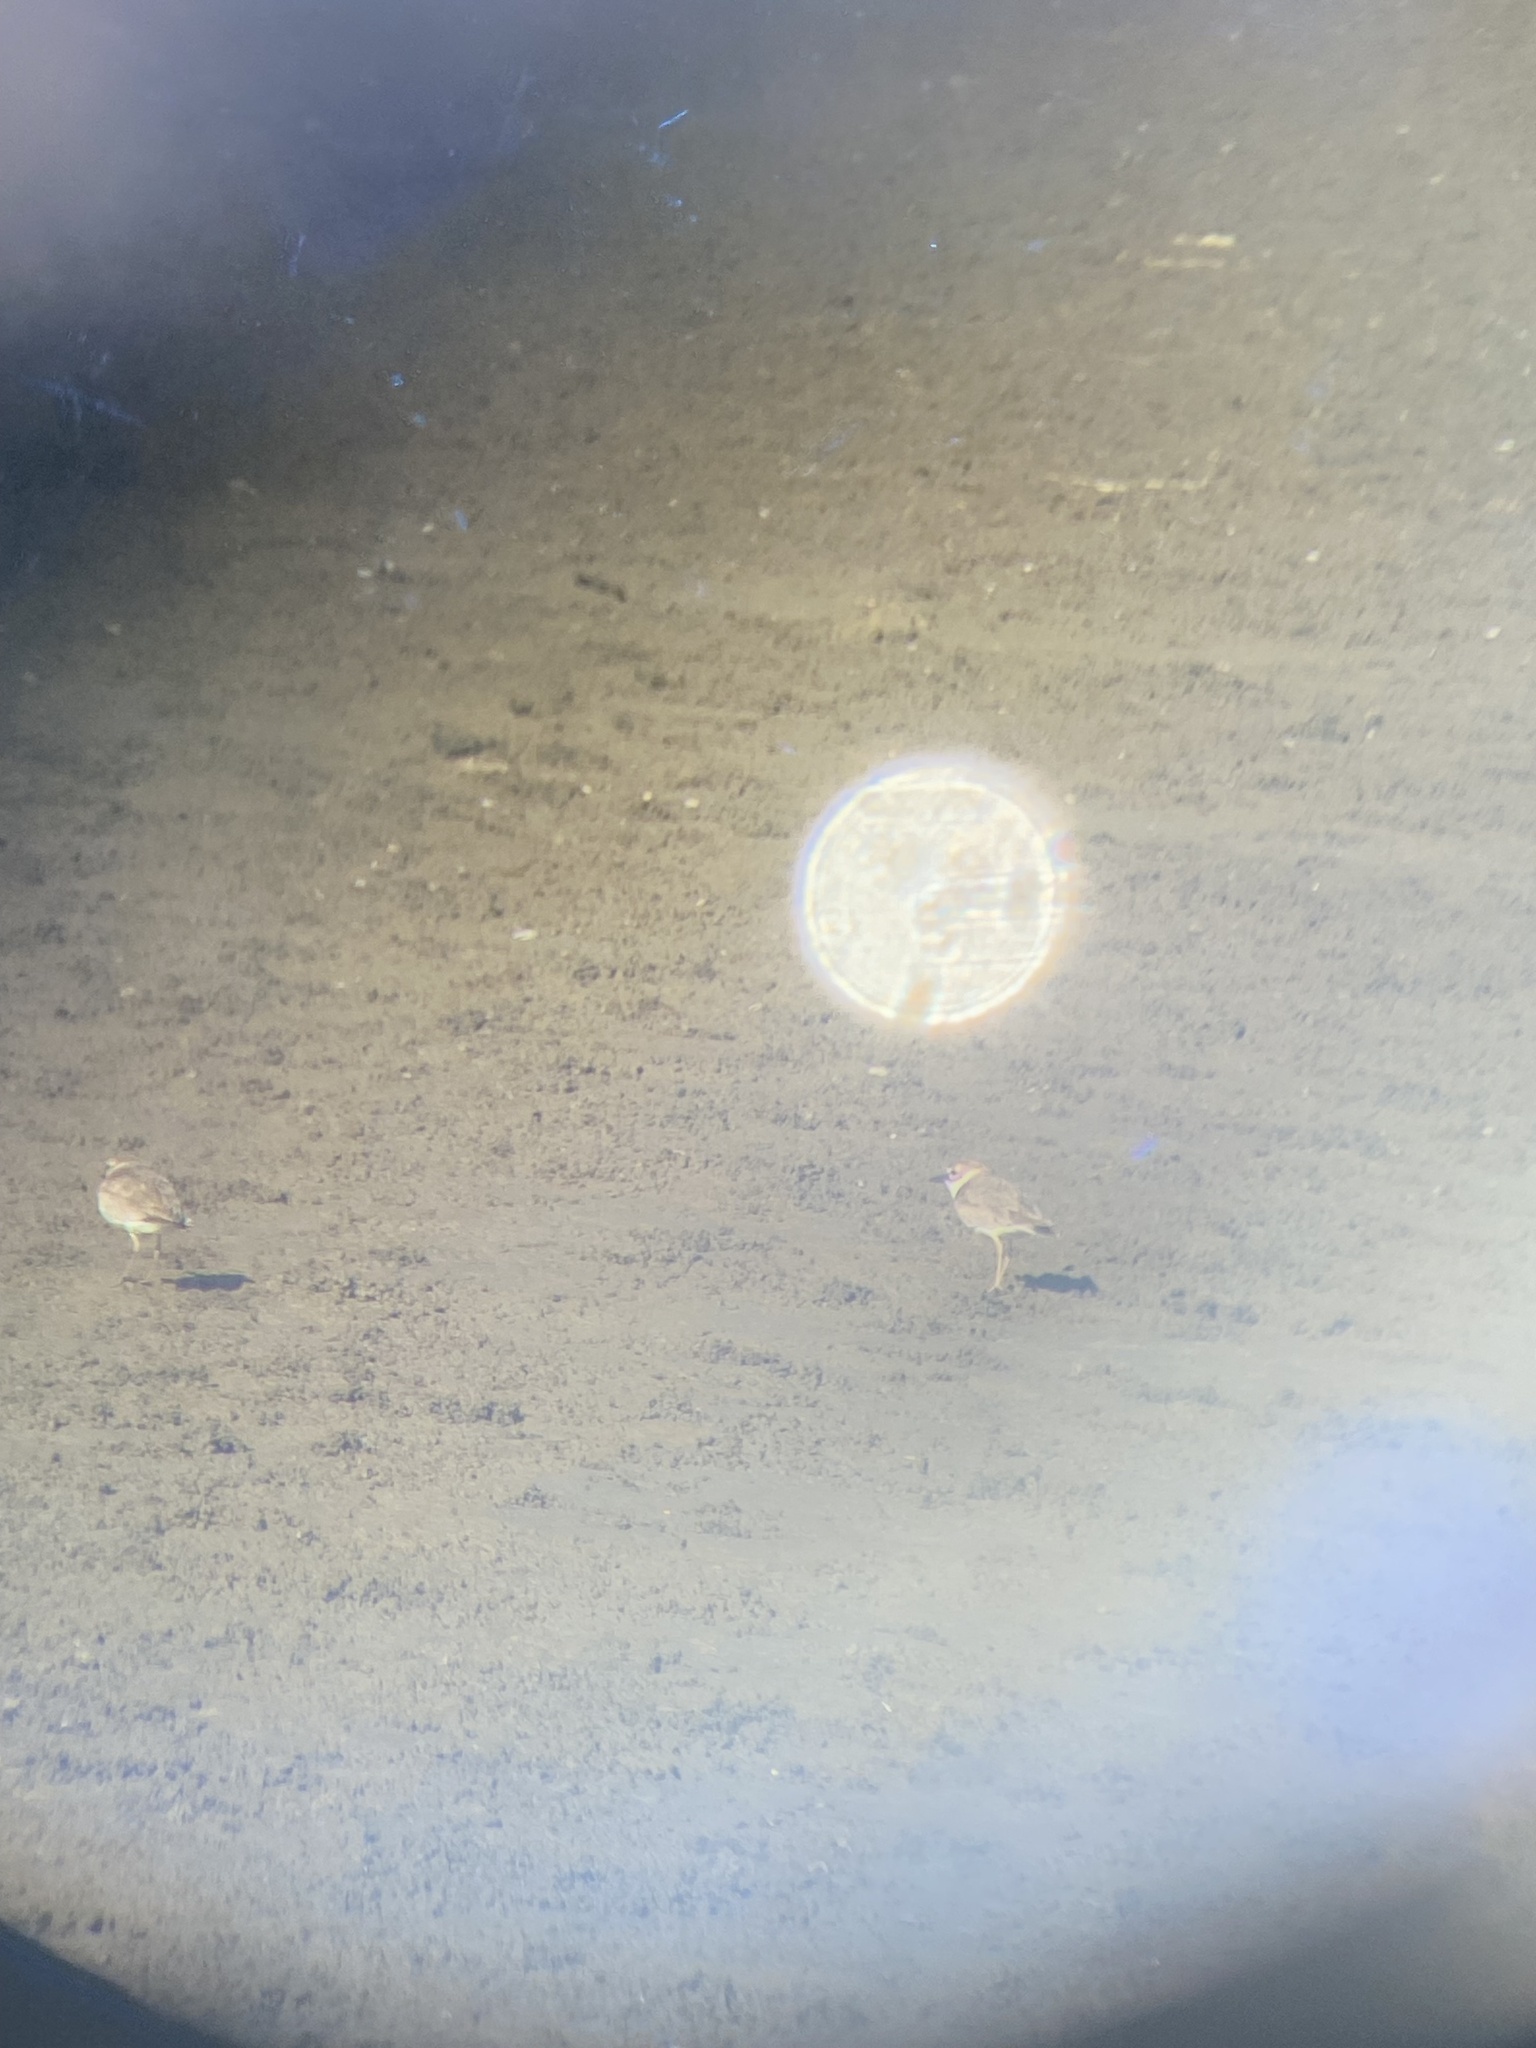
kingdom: Animalia
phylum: Chordata
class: Aves
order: Charadriiformes
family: Charadriidae
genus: Anarhynchus
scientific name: Anarhynchus
